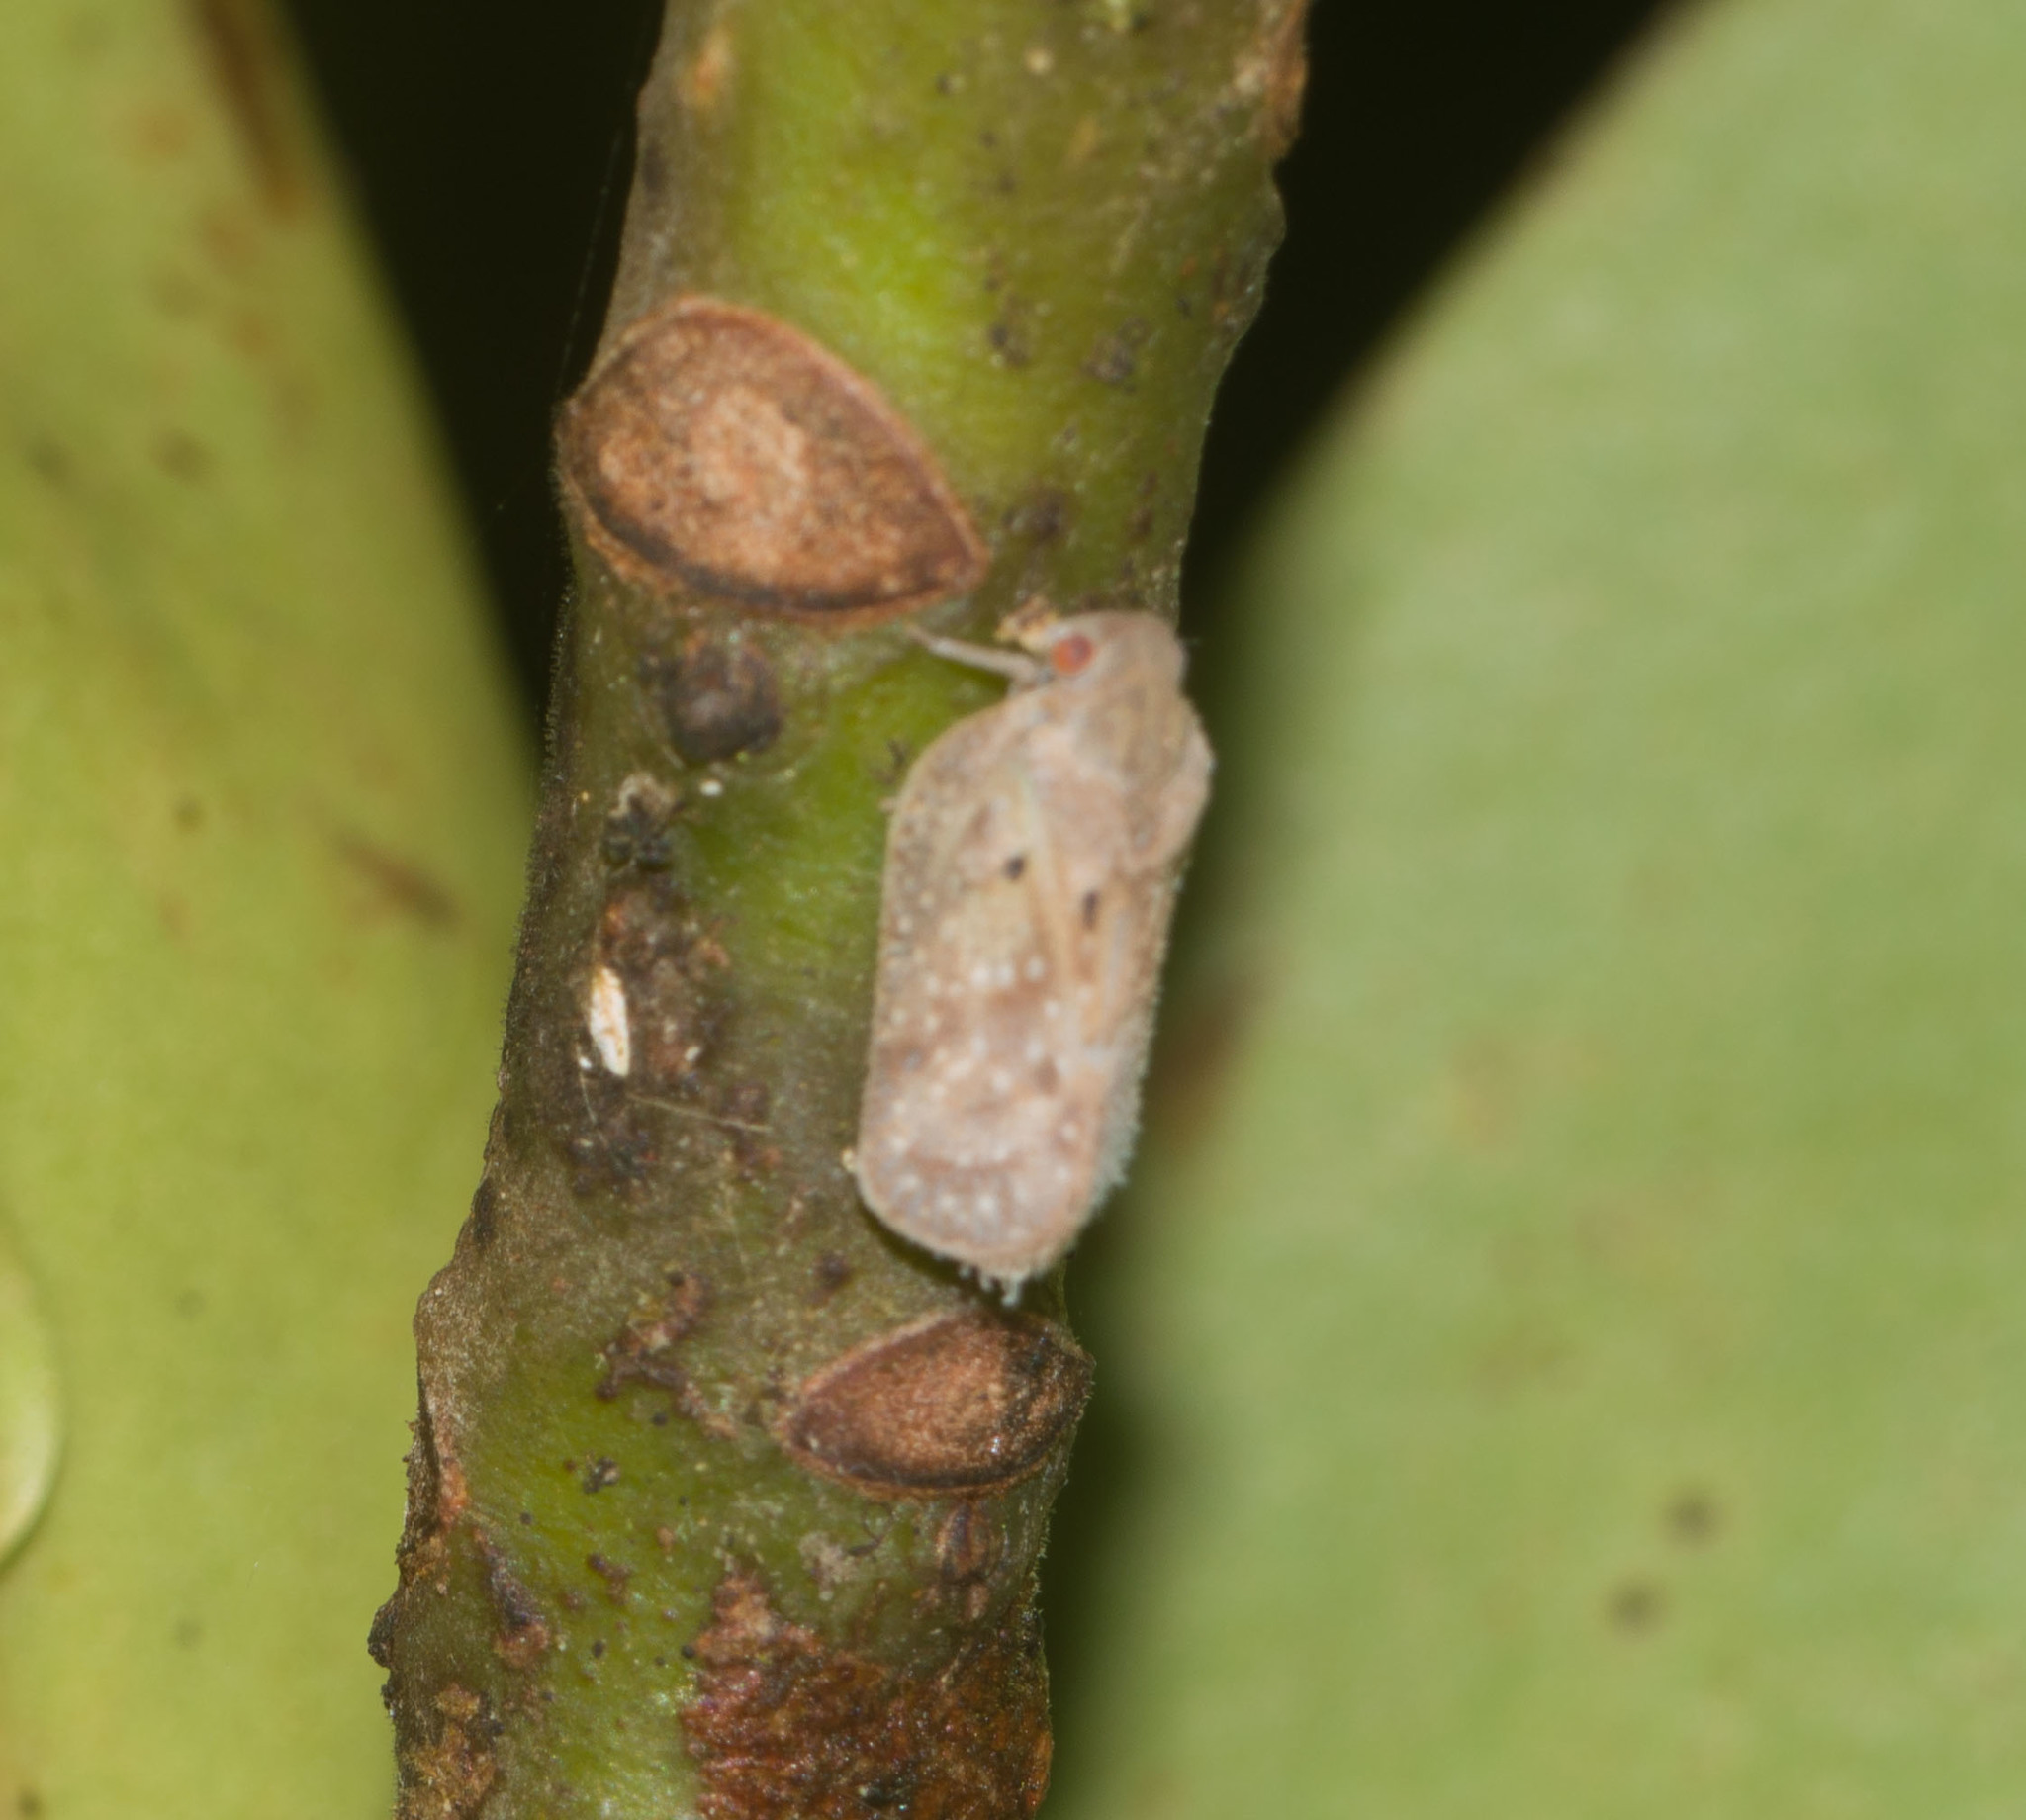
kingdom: Animalia
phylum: Arthropoda
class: Insecta
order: Hemiptera
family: Flatidae
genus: Melormenis
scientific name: Melormenis basalis
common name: Puerto rican planthopper
